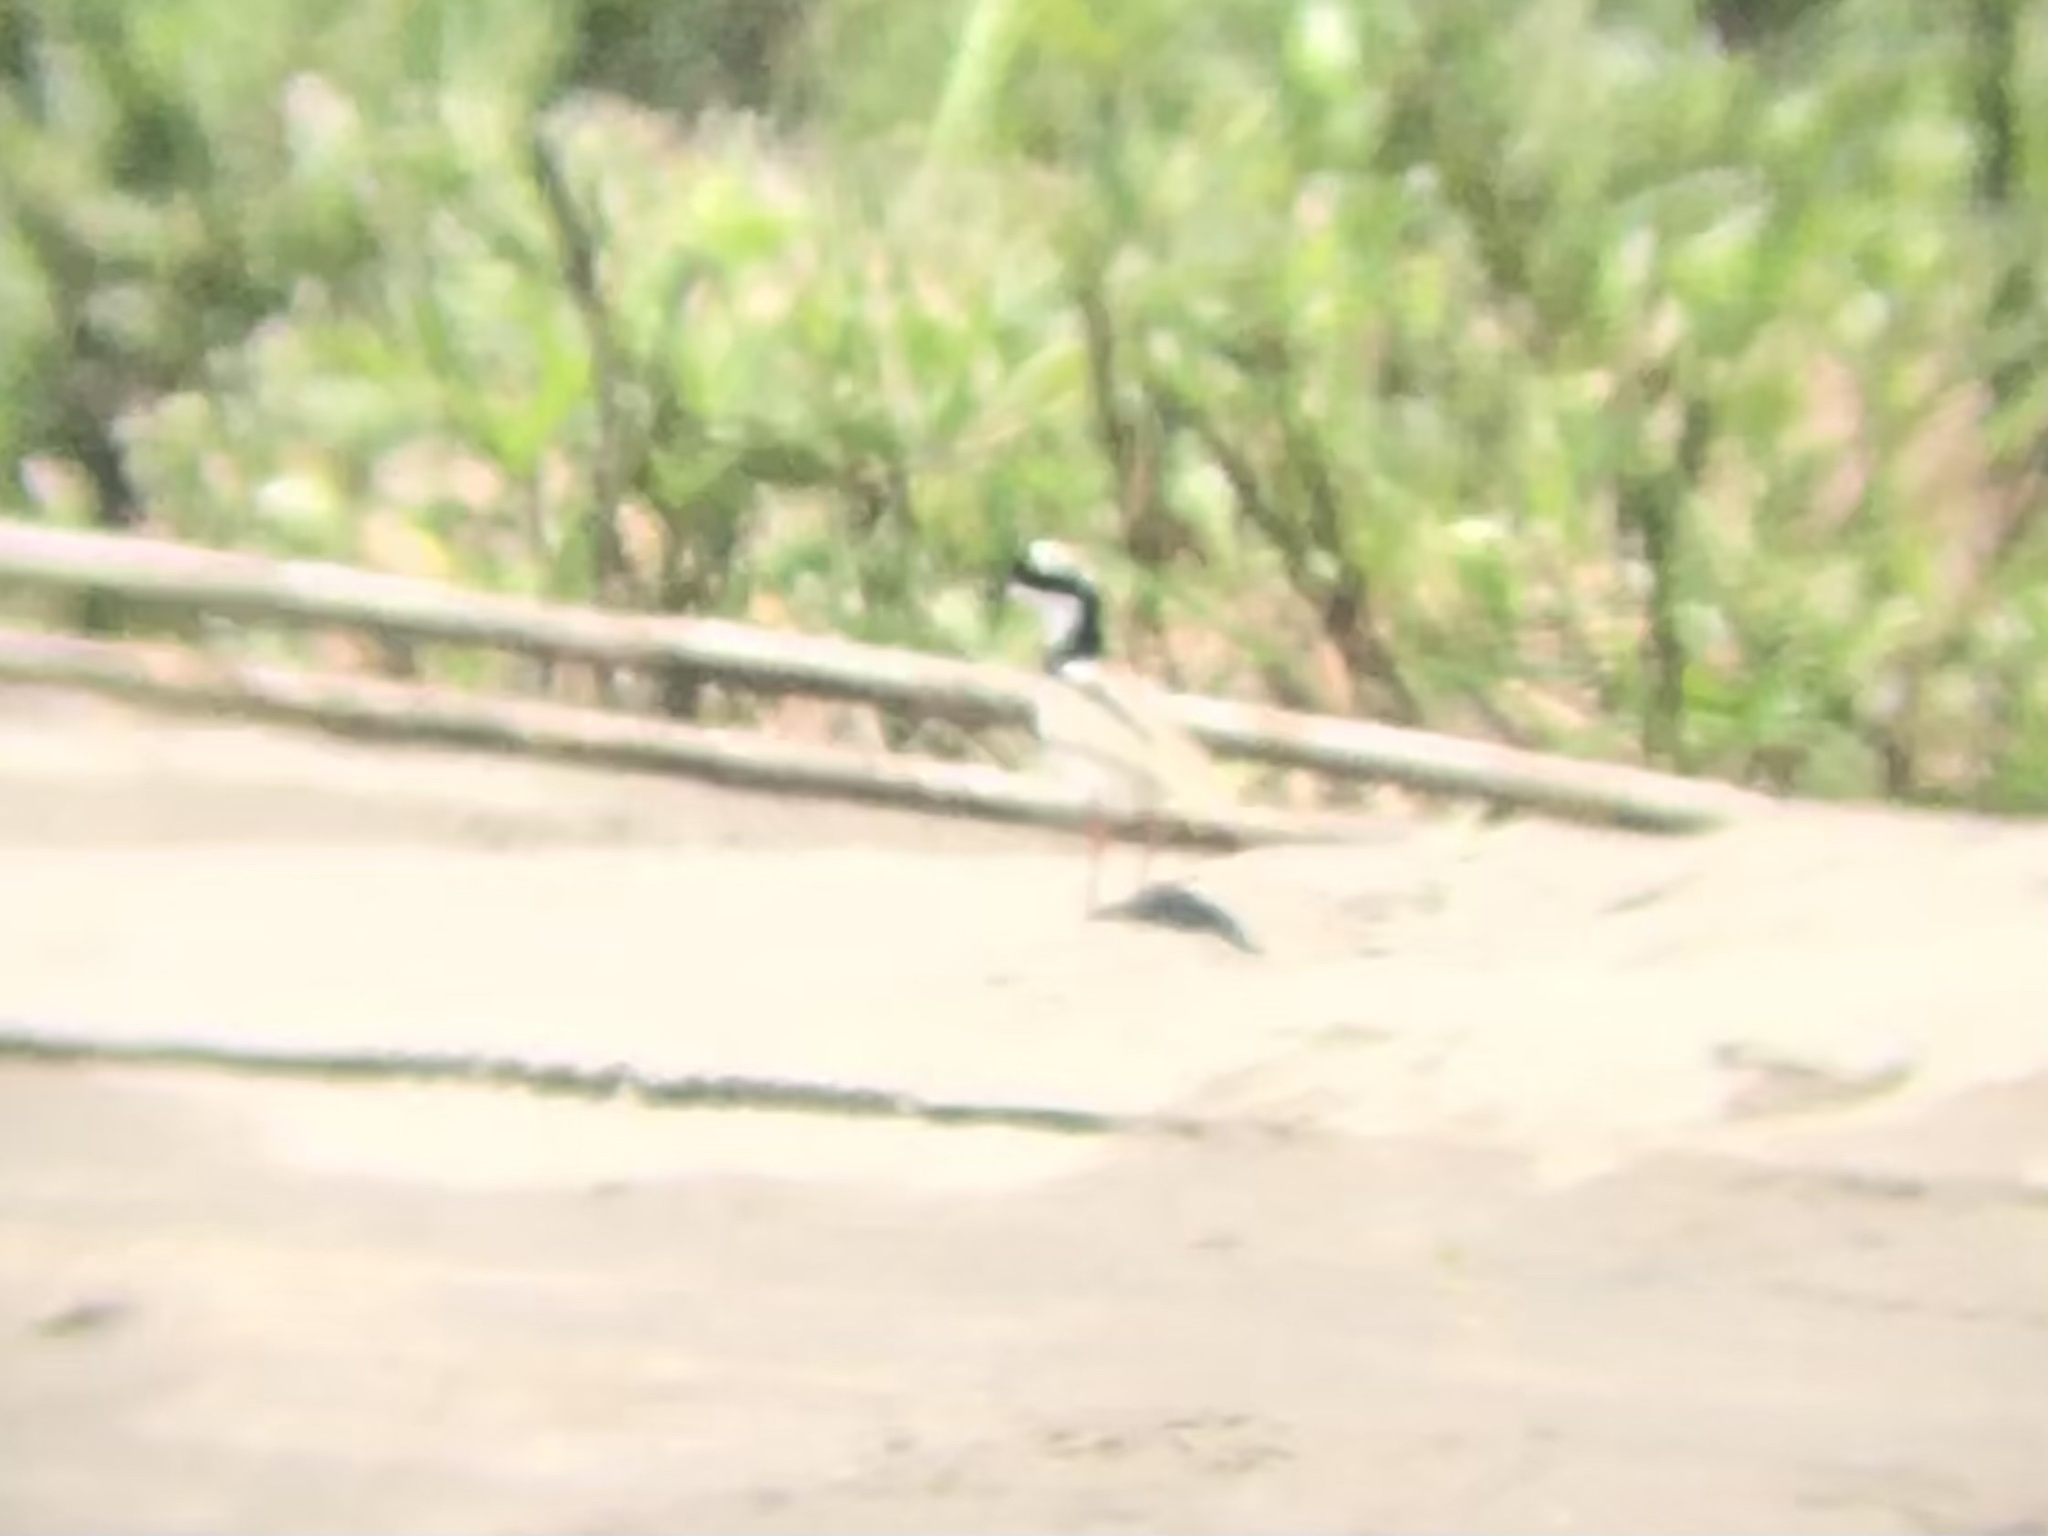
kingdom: Animalia
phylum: Chordata
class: Aves
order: Charadriiformes
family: Charadriidae
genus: Hoploxypterus
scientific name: Hoploxypterus cayanus
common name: Pied plover
